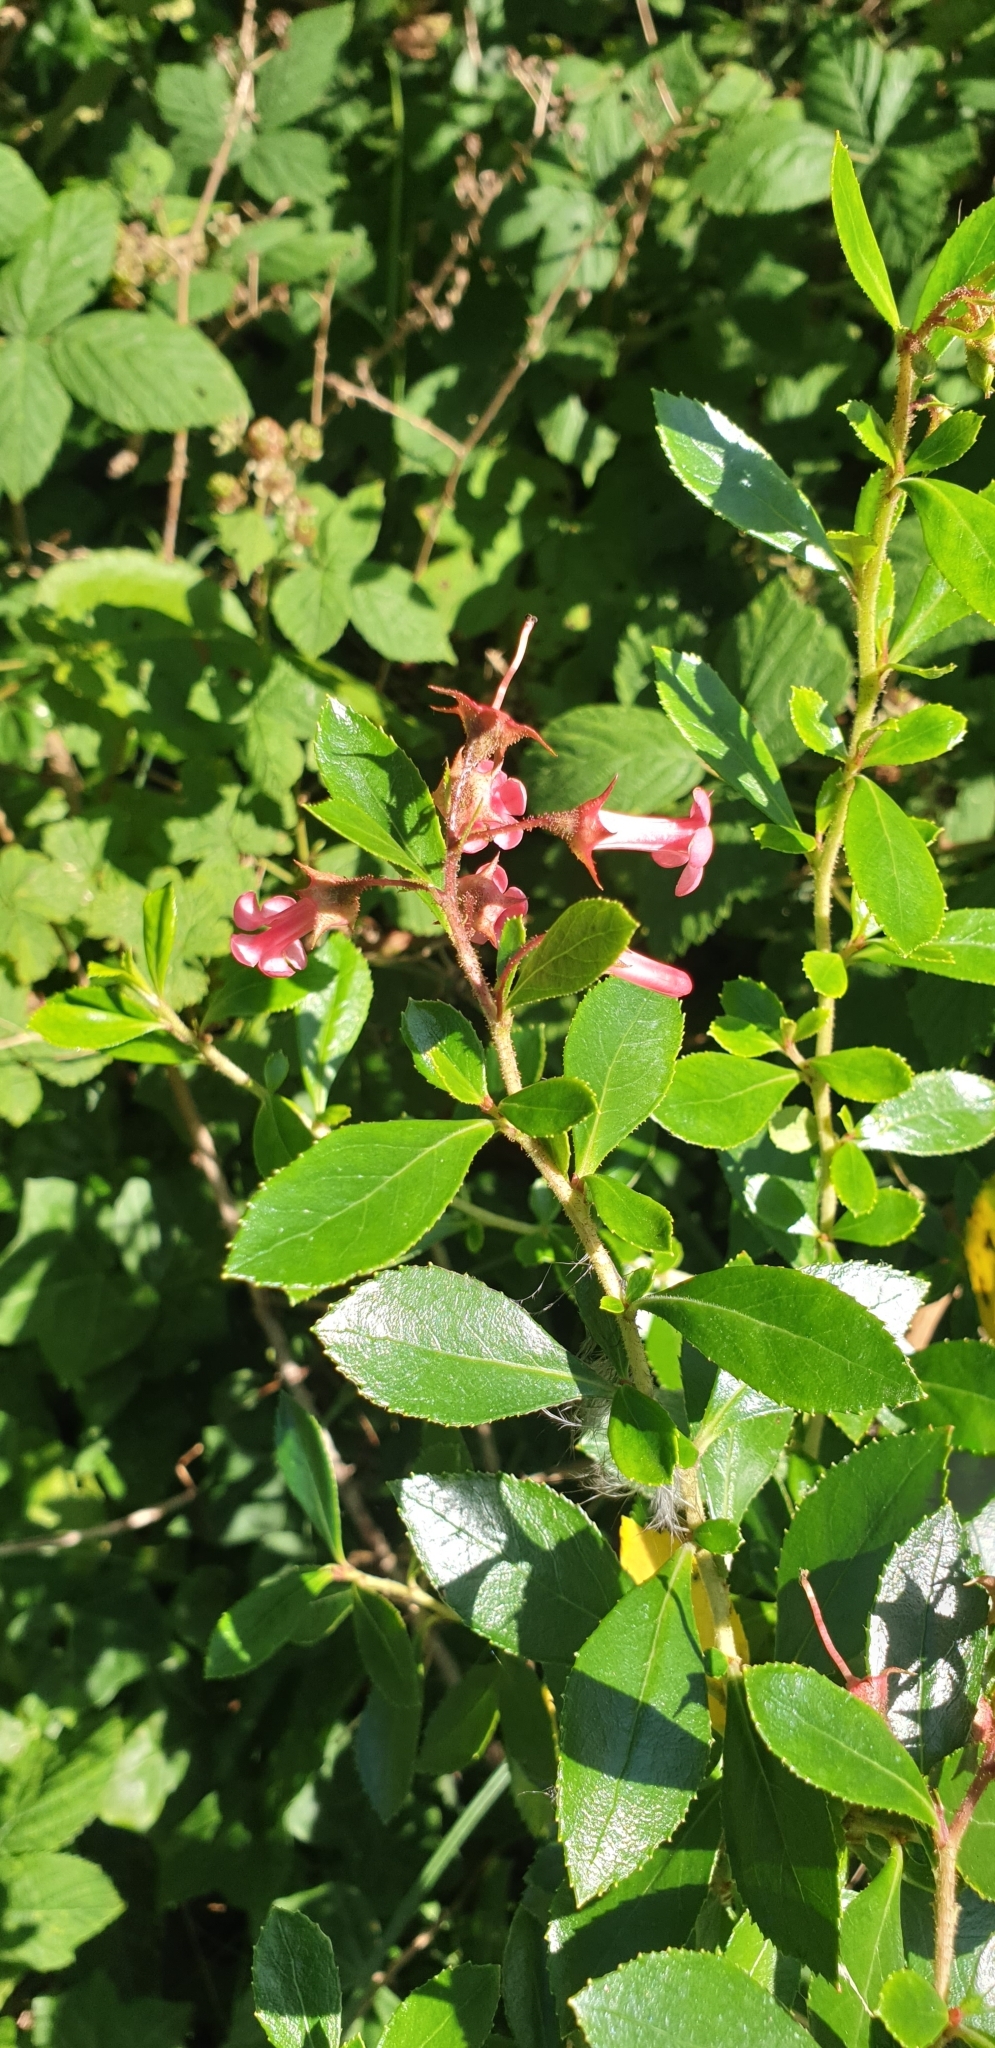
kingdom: Plantae
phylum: Tracheophyta
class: Magnoliopsida
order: Escalloniales
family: Escalloniaceae
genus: Escallonia
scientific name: Escallonia rubra
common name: Redclaws
